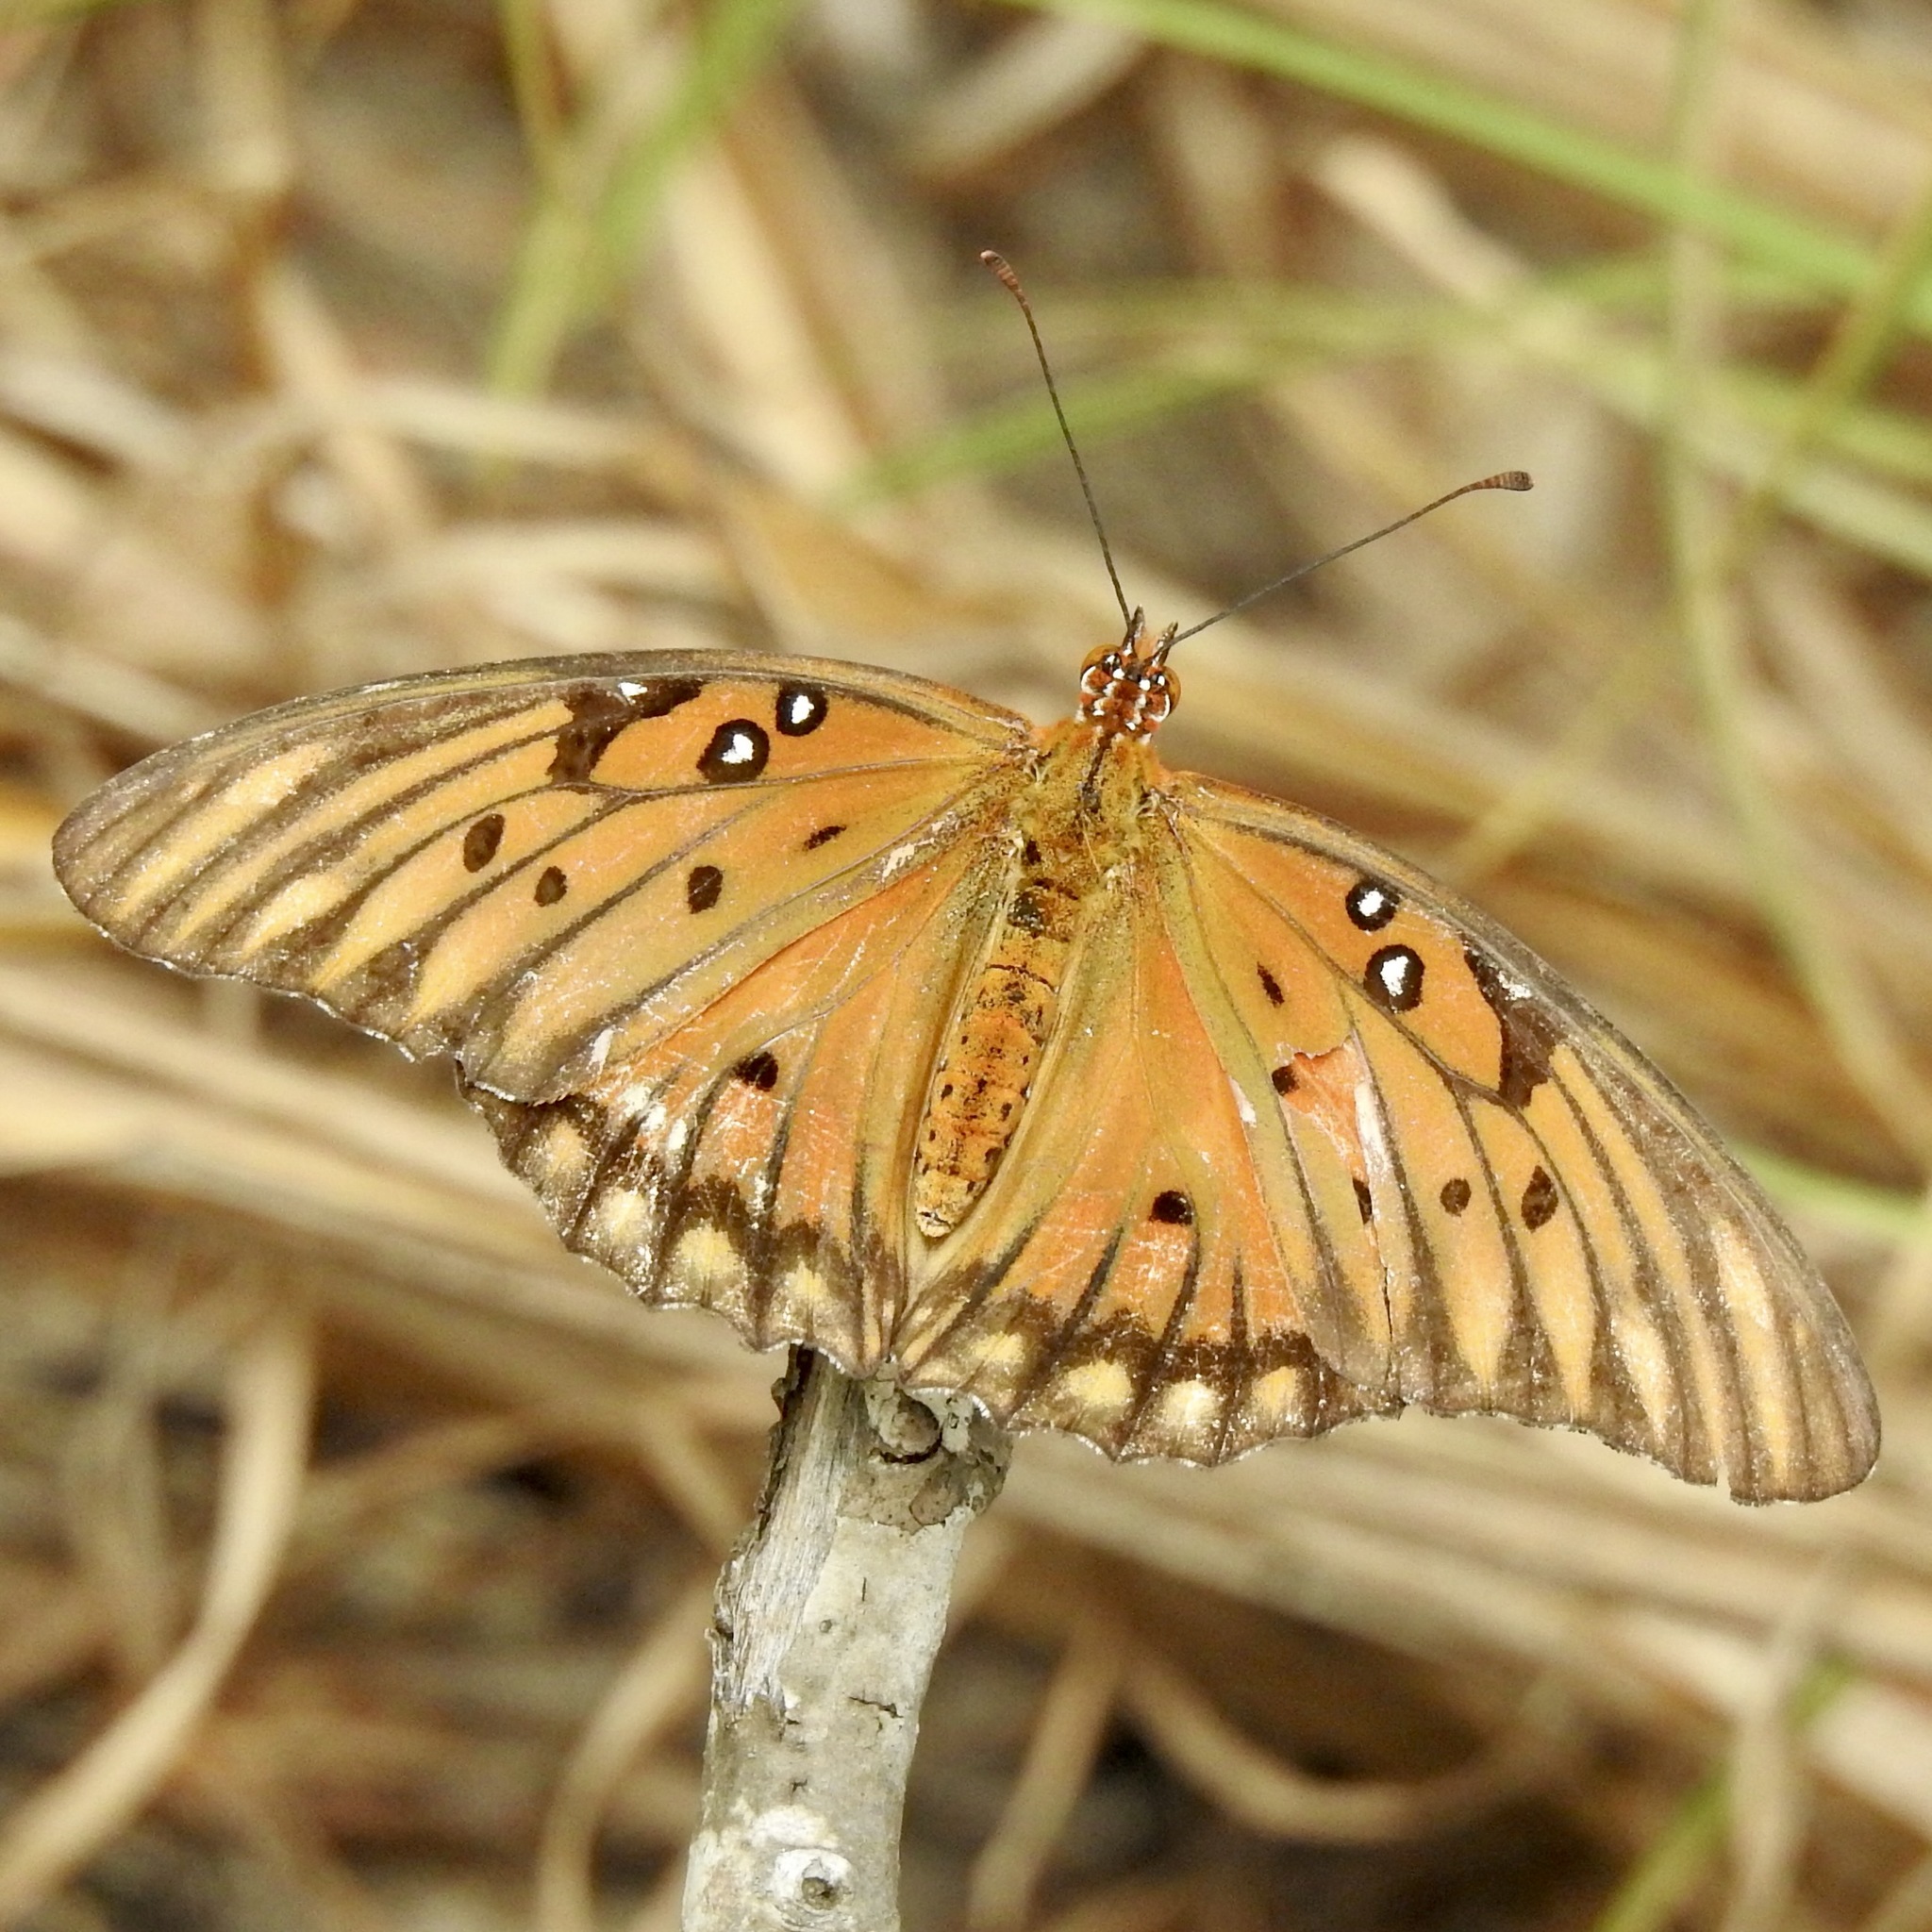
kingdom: Animalia
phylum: Arthropoda
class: Insecta
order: Lepidoptera
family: Nymphalidae
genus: Dione
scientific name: Dione vanillae
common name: Gulf fritillary
